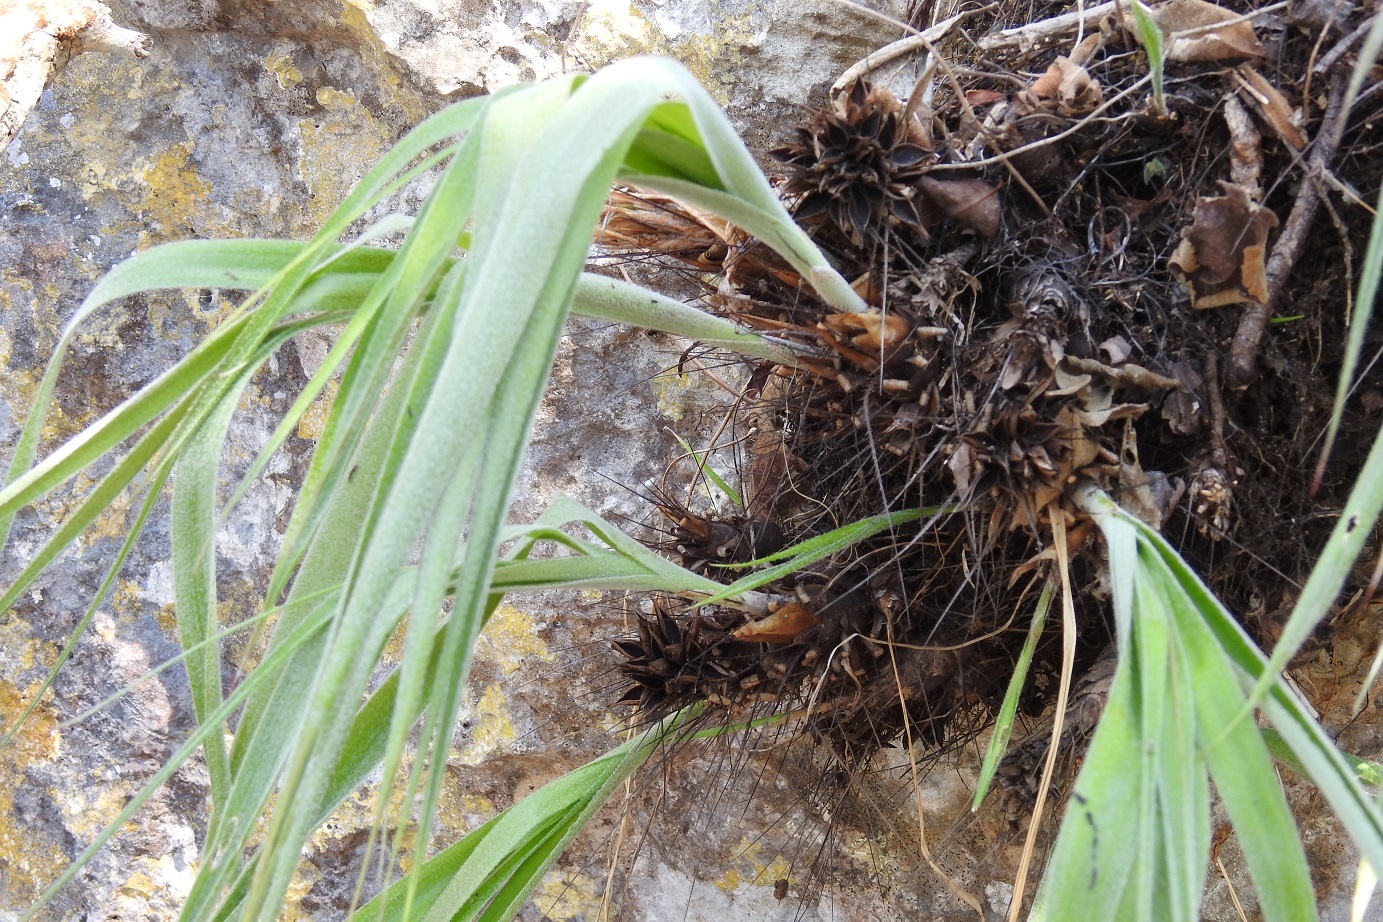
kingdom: Plantae
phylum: Tracheophyta
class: Liliopsida
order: Poales
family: Bromeliaceae
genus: Pitcairnia
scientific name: Pitcairnia heterophylla
